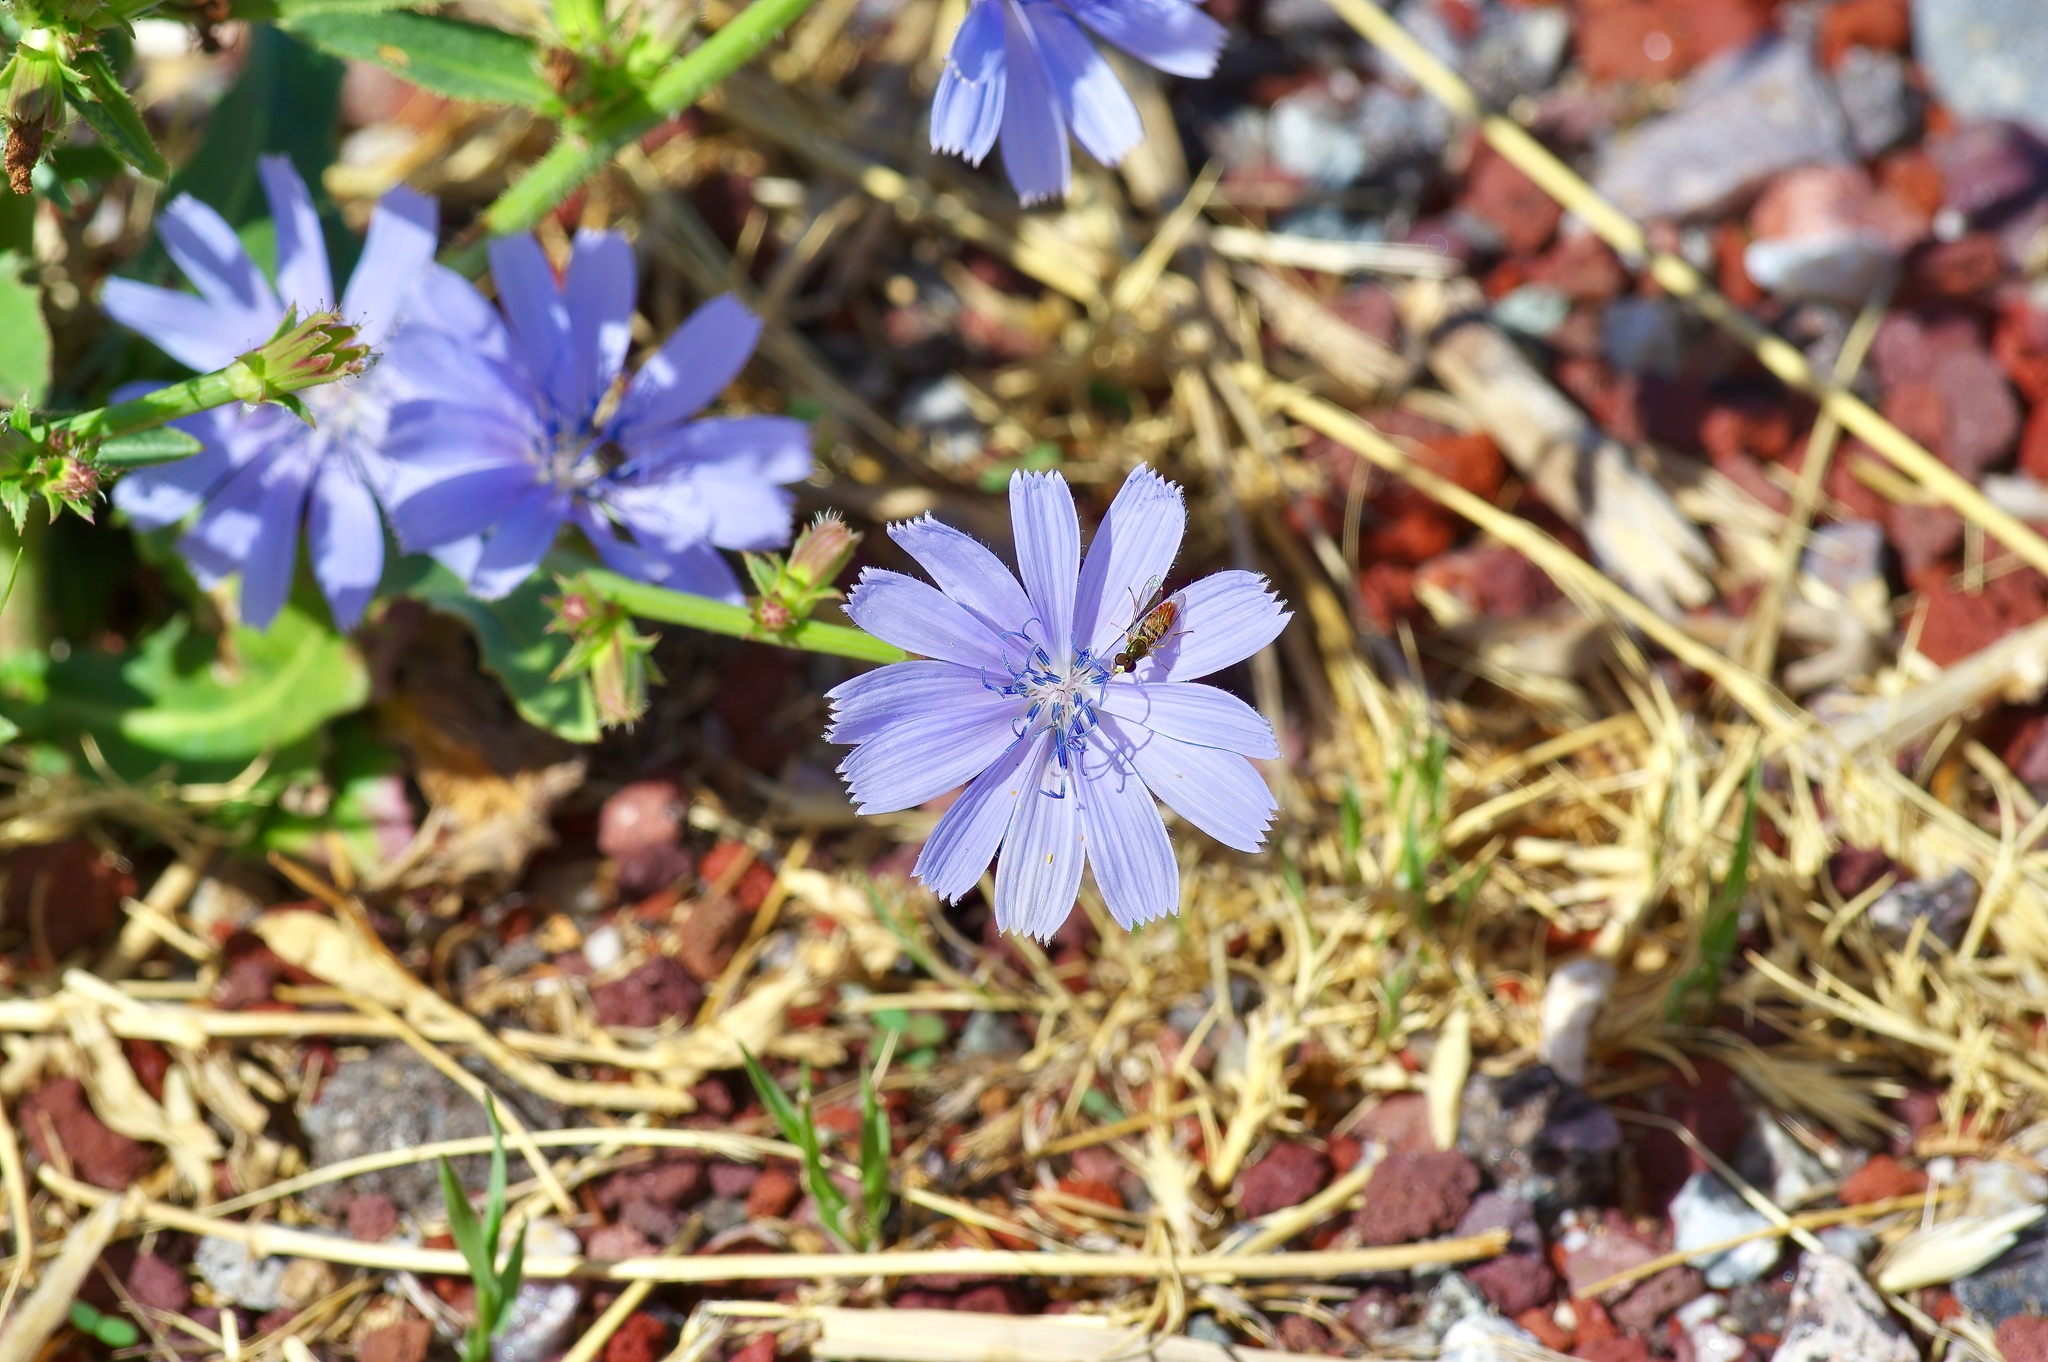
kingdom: Plantae
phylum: Tracheophyta
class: Magnoliopsida
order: Asterales
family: Asteraceae
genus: Cichorium
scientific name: Cichorium intybus
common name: Chicory
